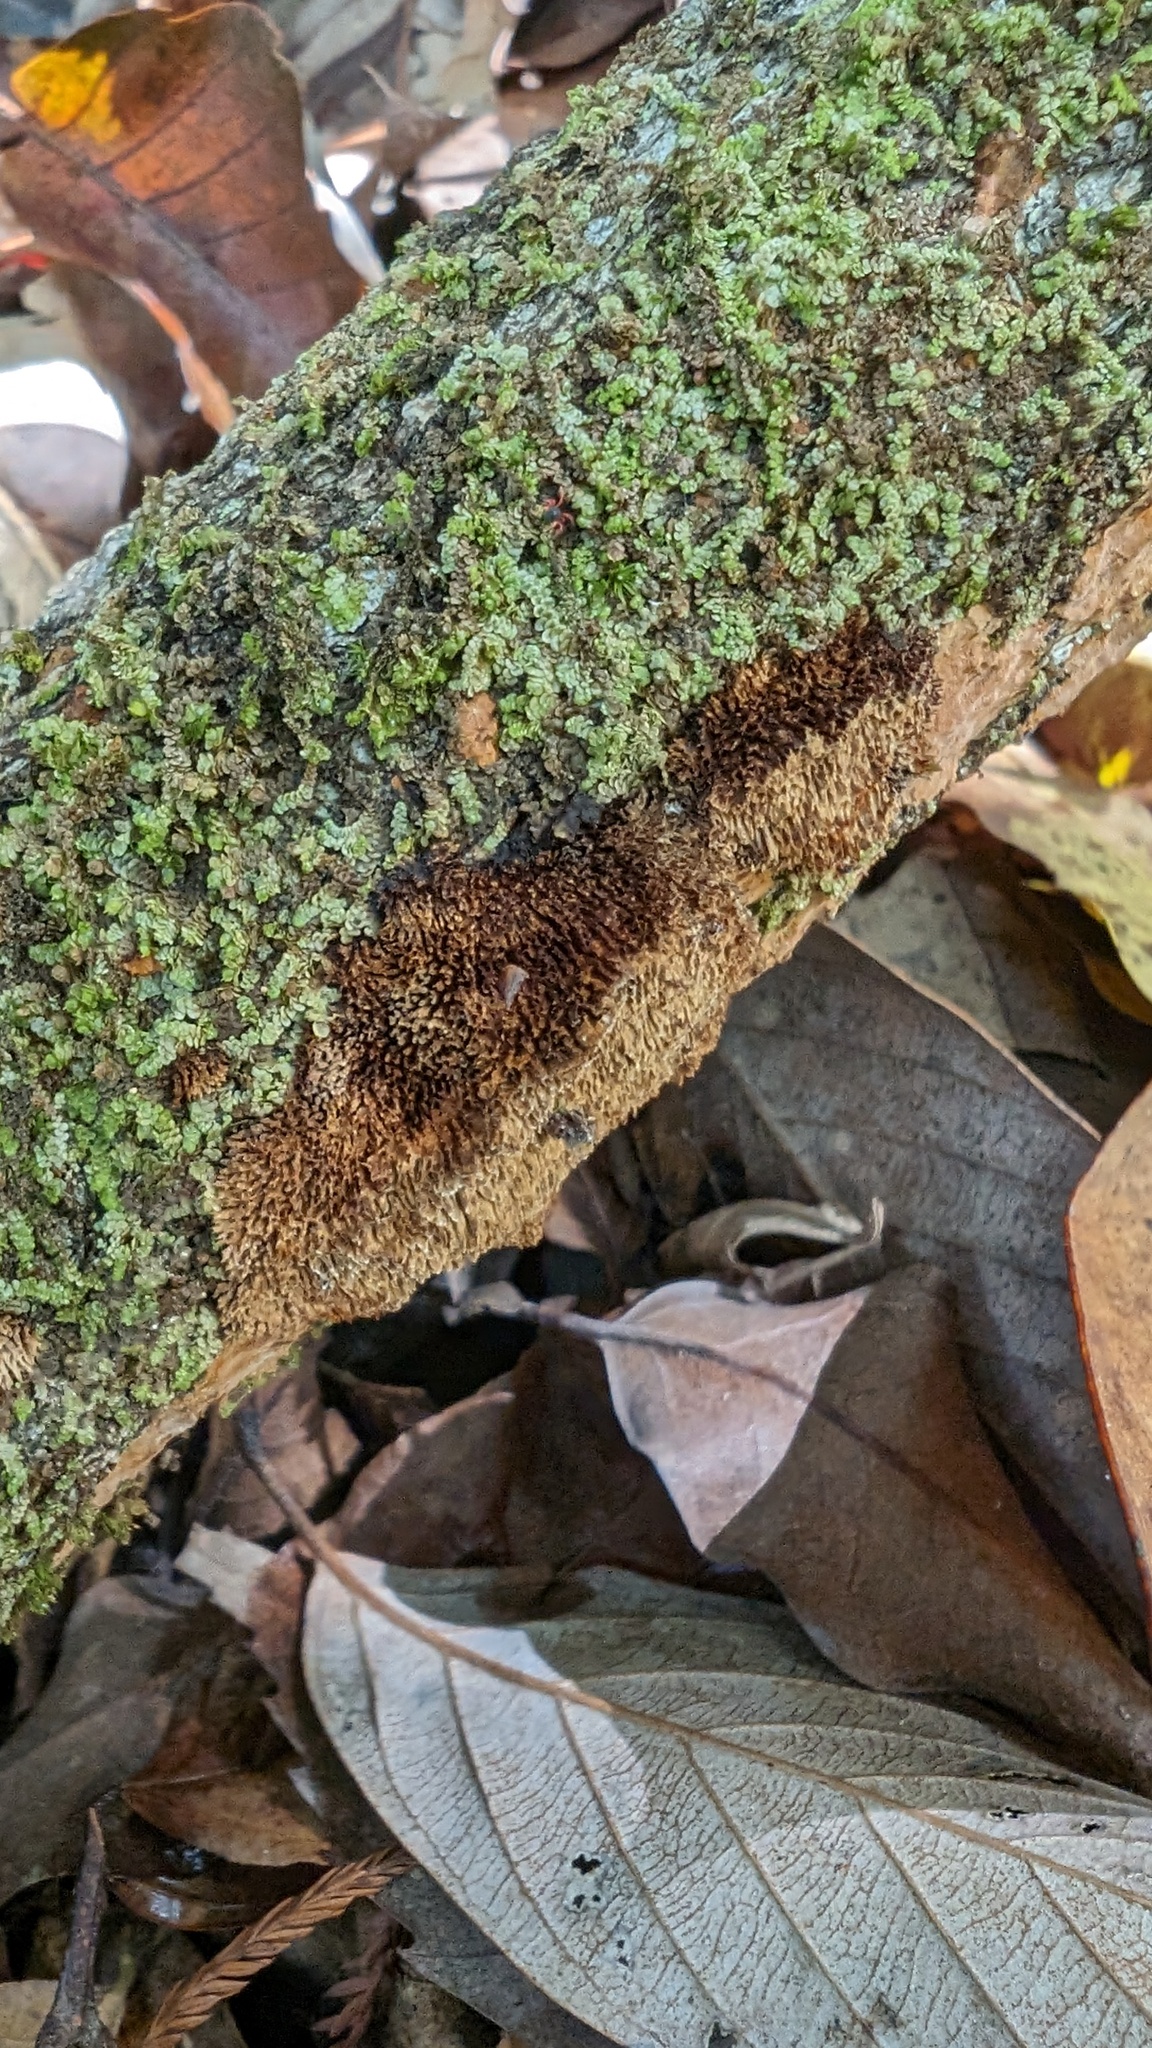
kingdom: Fungi
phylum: Basidiomycota
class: Agaricomycetes
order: Hymenochaetales
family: Hymenochaetaceae
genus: Fuscoporia
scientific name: Fuscoporia setifera
